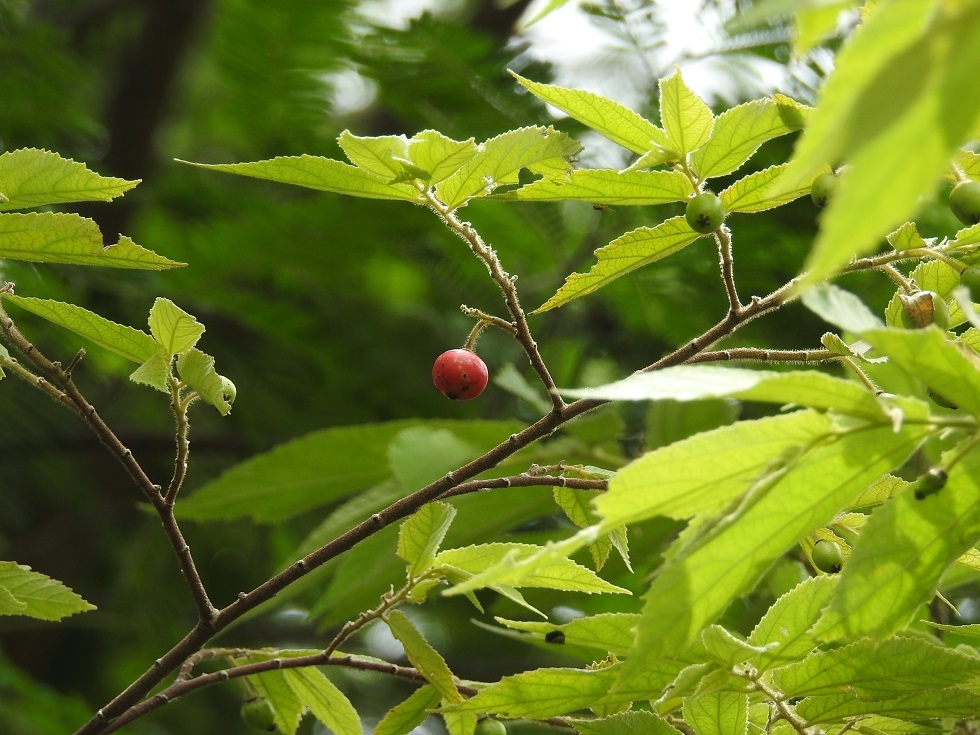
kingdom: Plantae
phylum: Tracheophyta
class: Magnoliopsida
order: Malvales
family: Muntingiaceae
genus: Muntingia
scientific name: Muntingia calabura
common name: Strawberrytree
